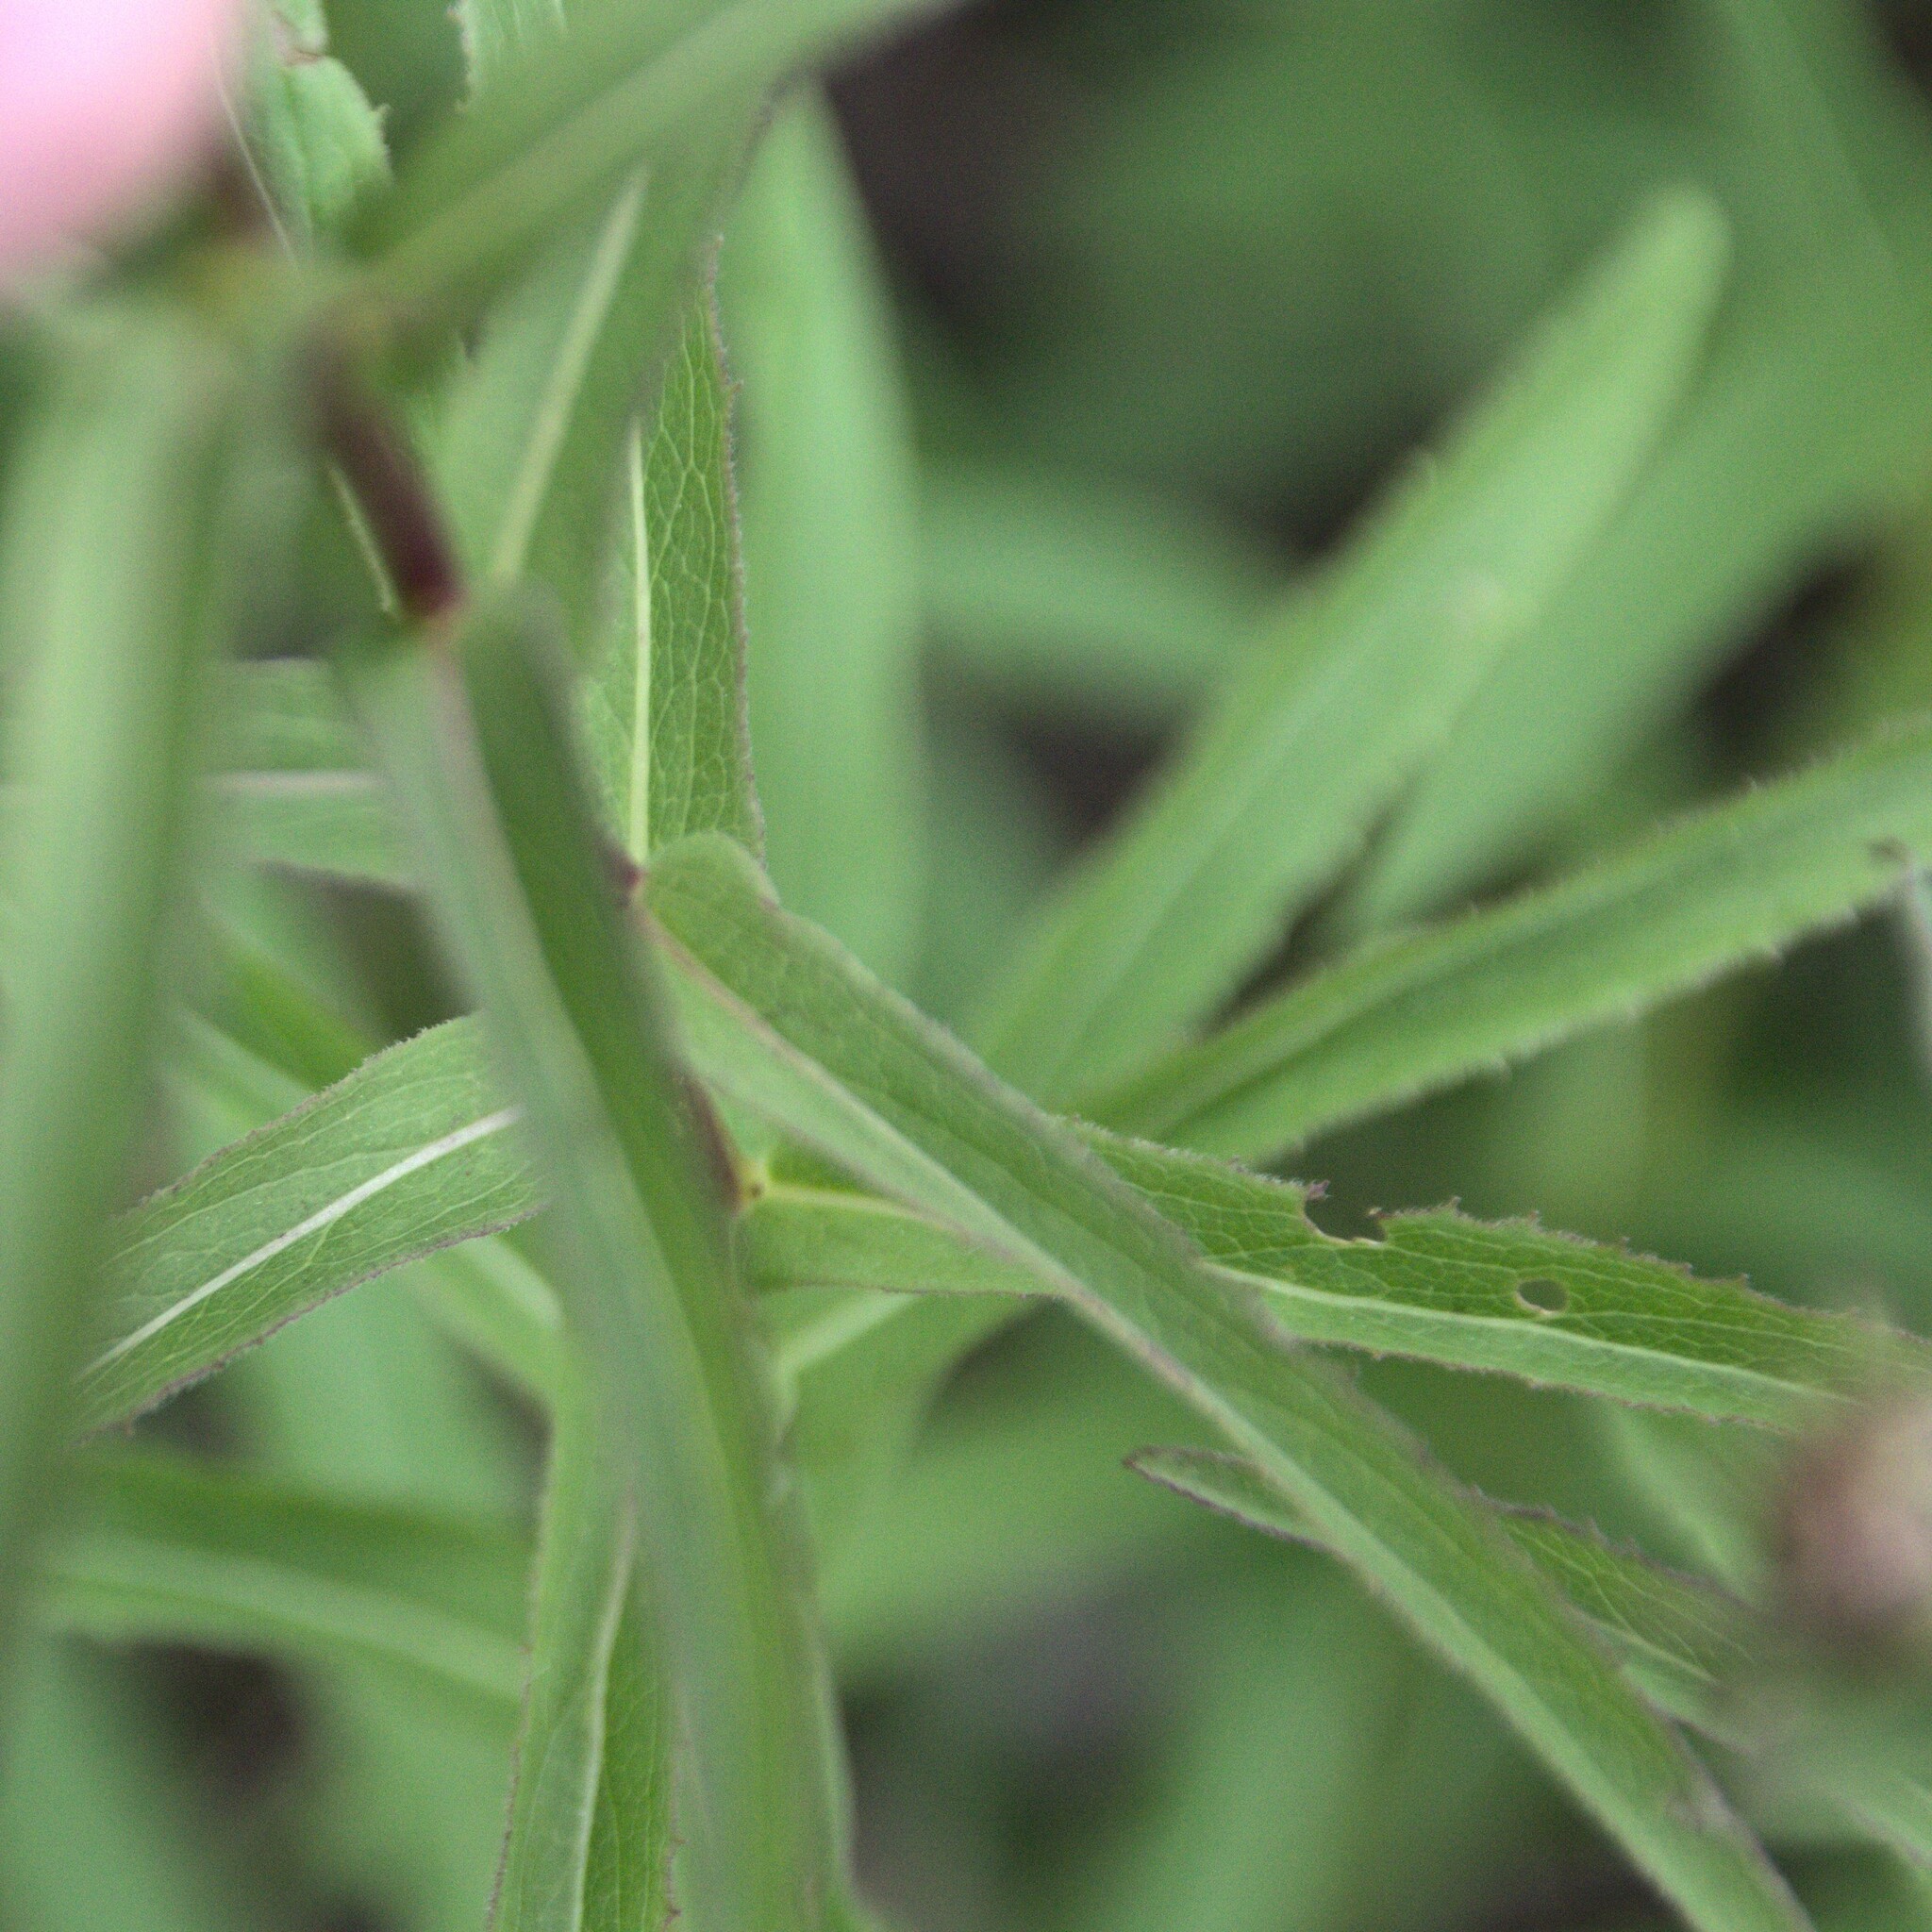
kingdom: Plantae
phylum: Tracheophyta
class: Magnoliopsida
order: Asterales
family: Asteraceae
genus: Pentanema
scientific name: Pentanema salicinum
